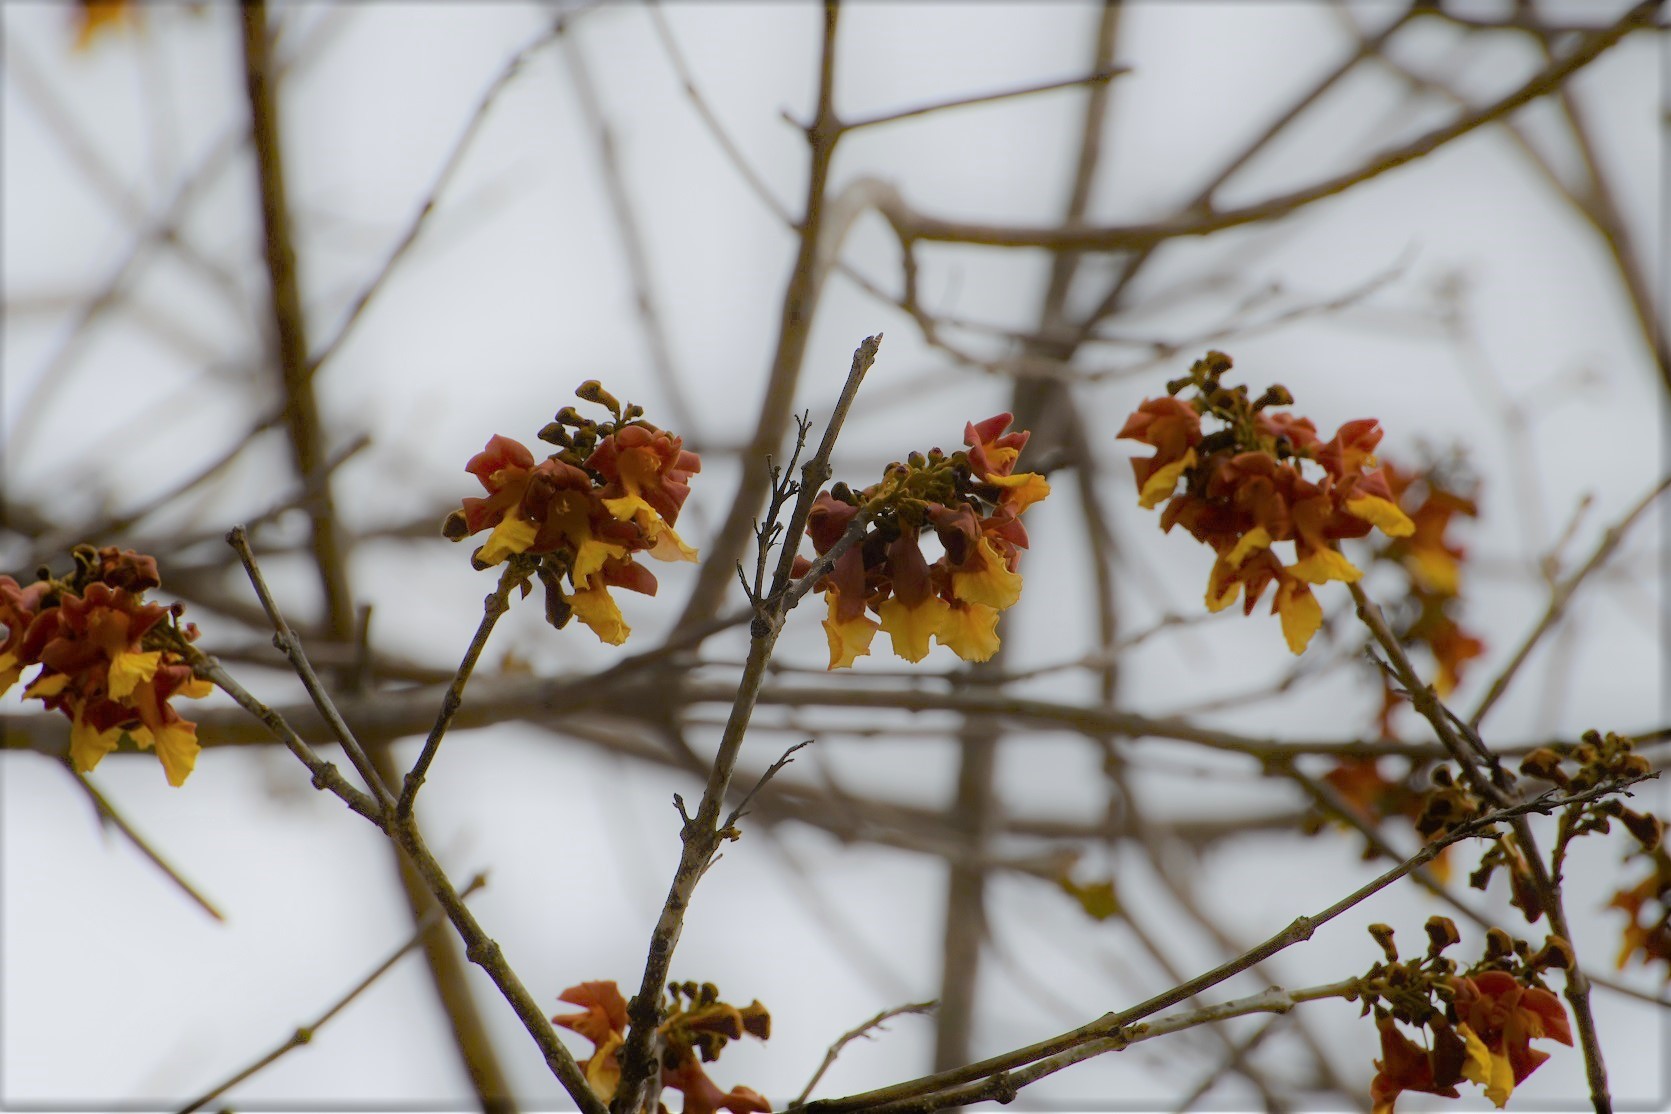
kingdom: Plantae
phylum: Tracheophyta
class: Magnoliopsida
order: Lamiales
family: Lamiaceae
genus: Gmelina
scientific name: Gmelina arborea
